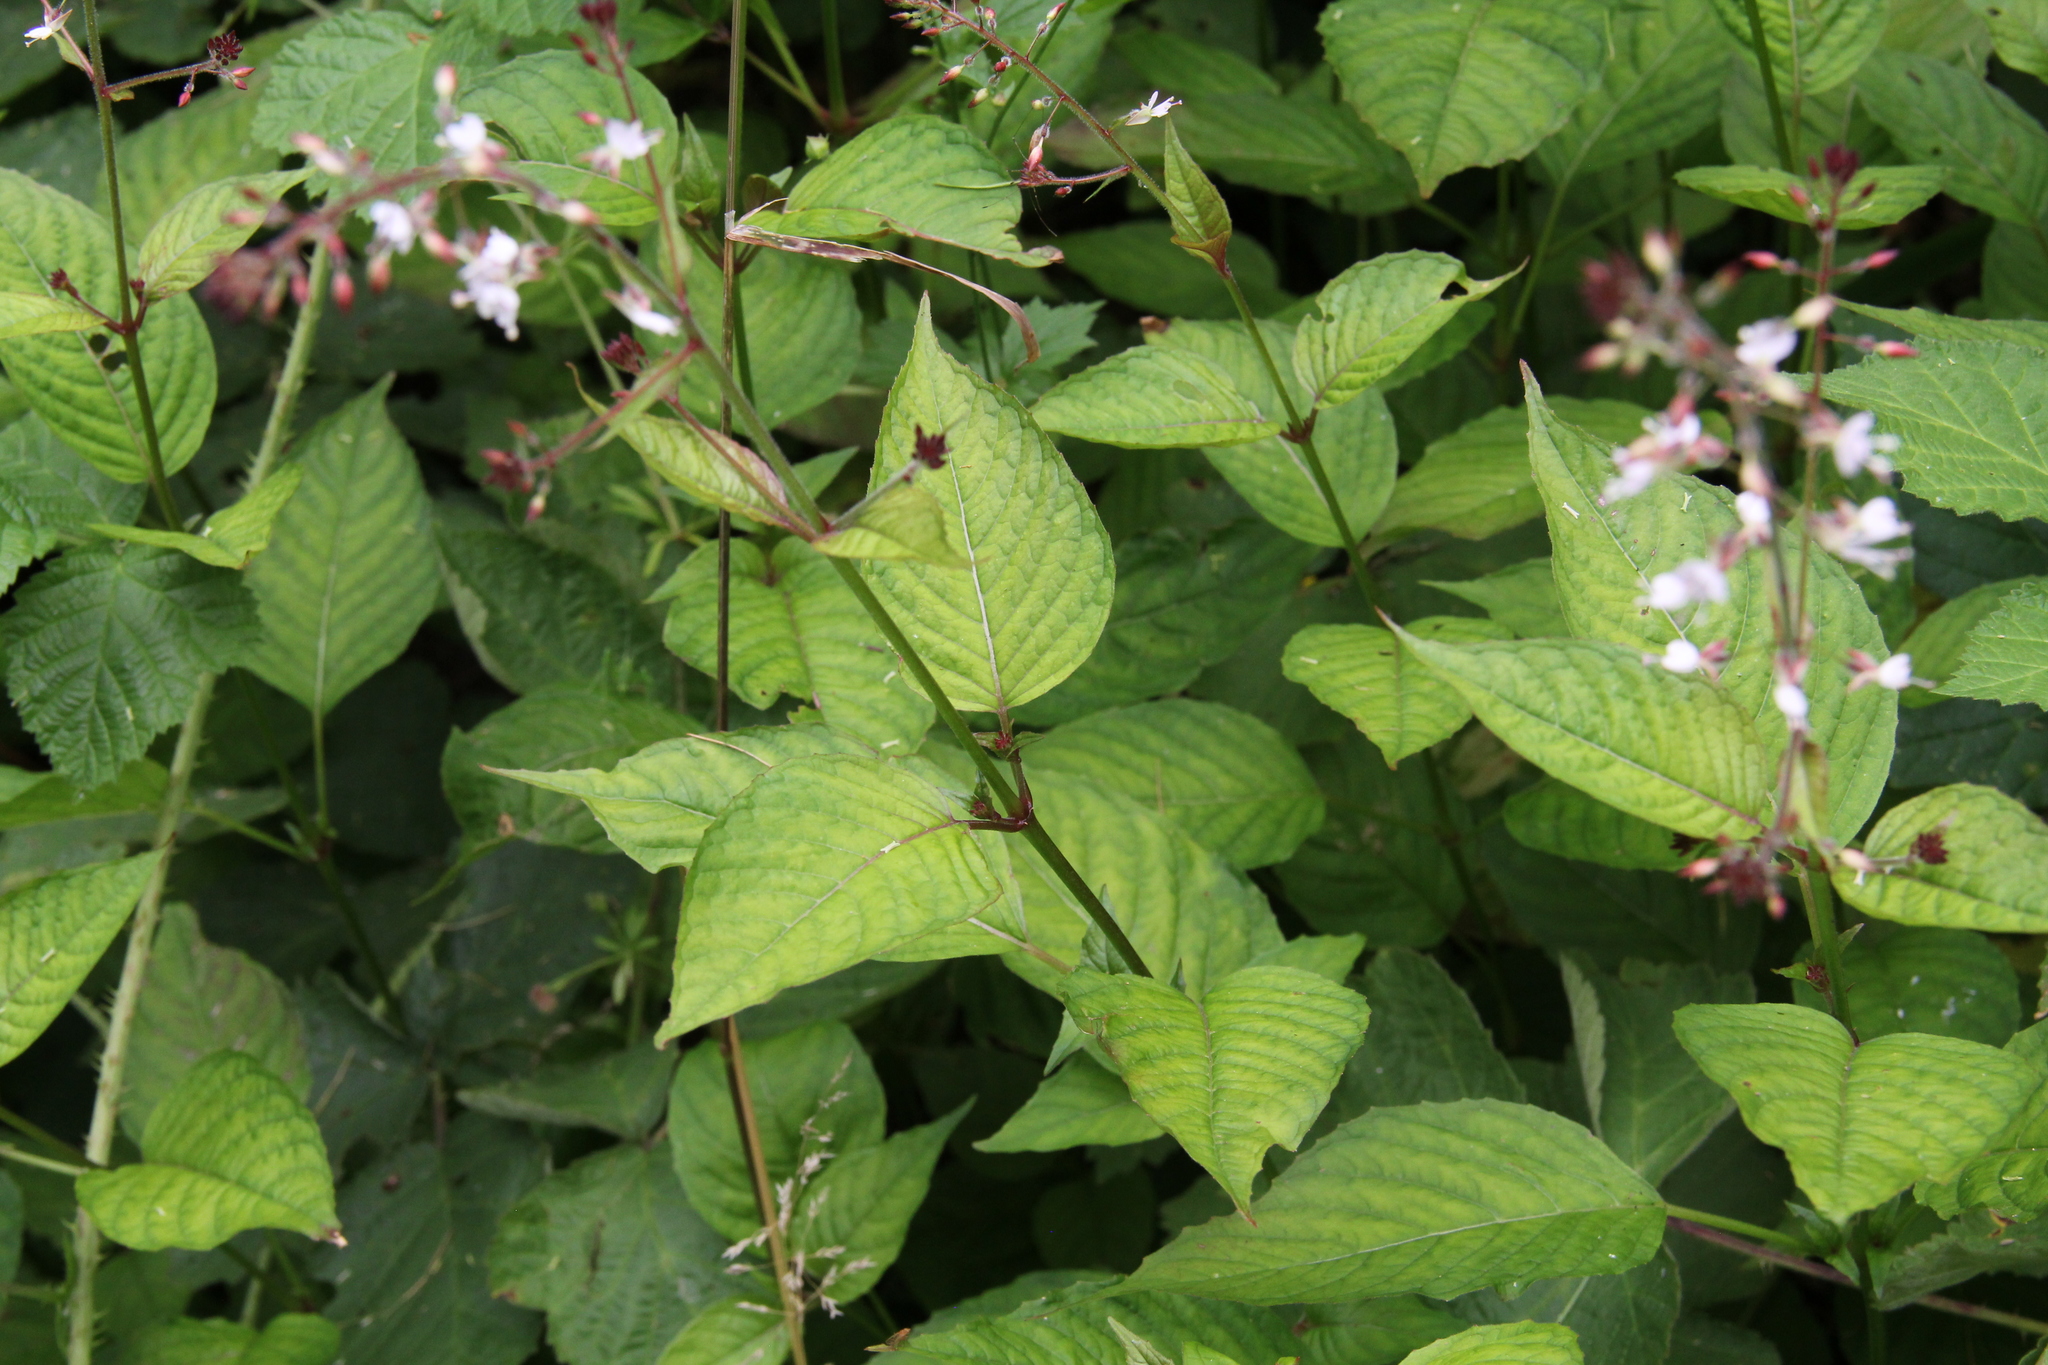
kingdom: Plantae
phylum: Tracheophyta
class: Magnoliopsida
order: Myrtales
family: Onagraceae
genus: Circaea
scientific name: Circaea lutetiana
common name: Enchanter's-nightshade
